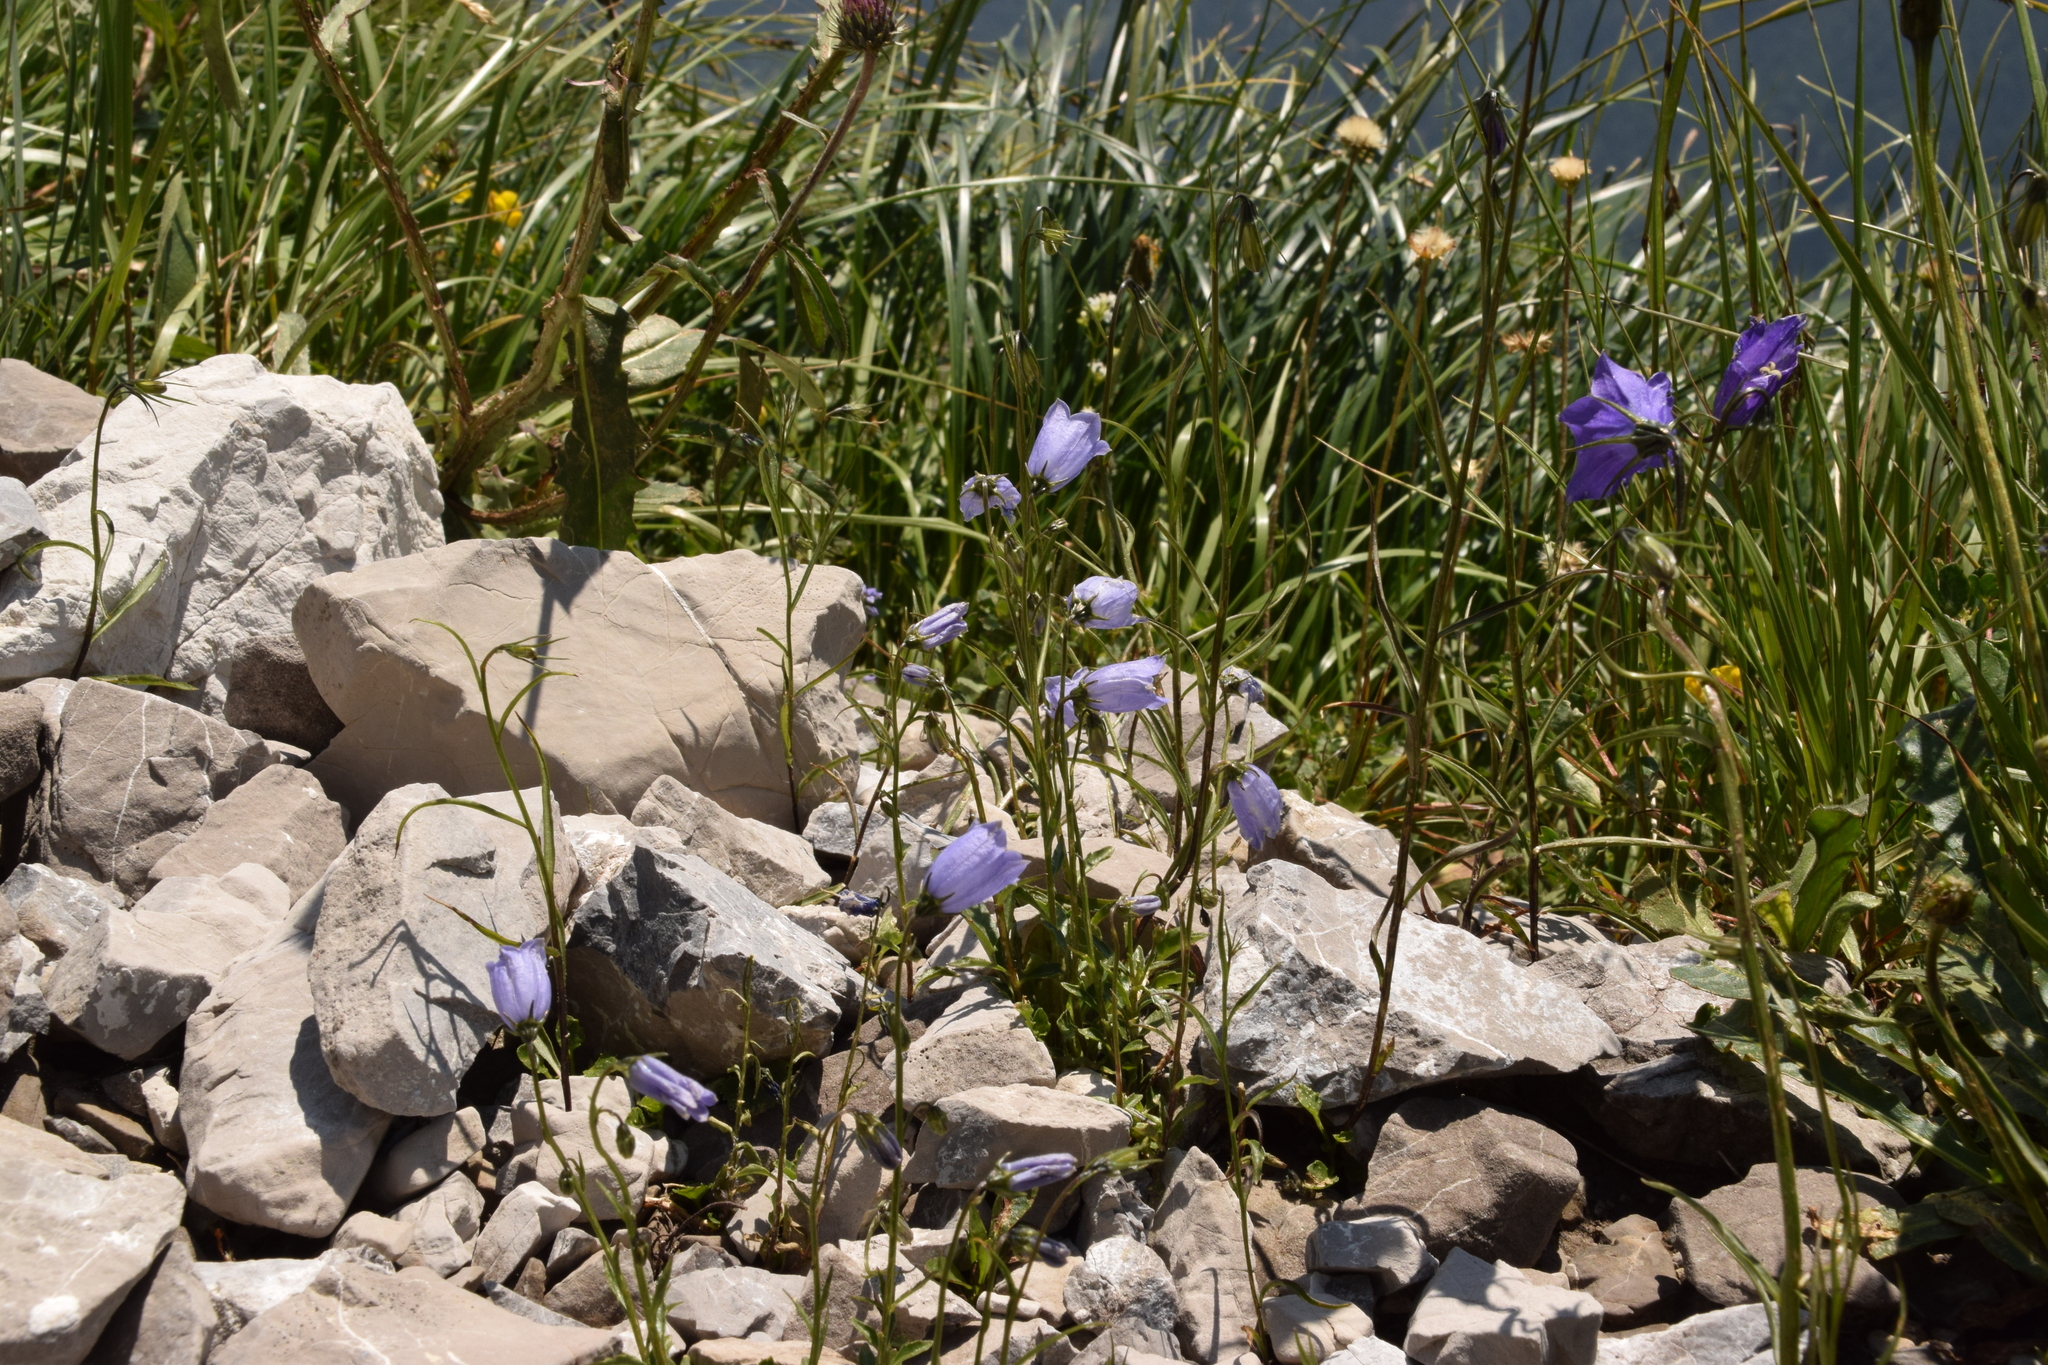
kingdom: Plantae
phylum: Tracheophyta
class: Magnoliopsida
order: Asterales
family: Campanulaceae
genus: Campanula
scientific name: Campanula cochleariifolia
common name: Fairies'-thimbles
